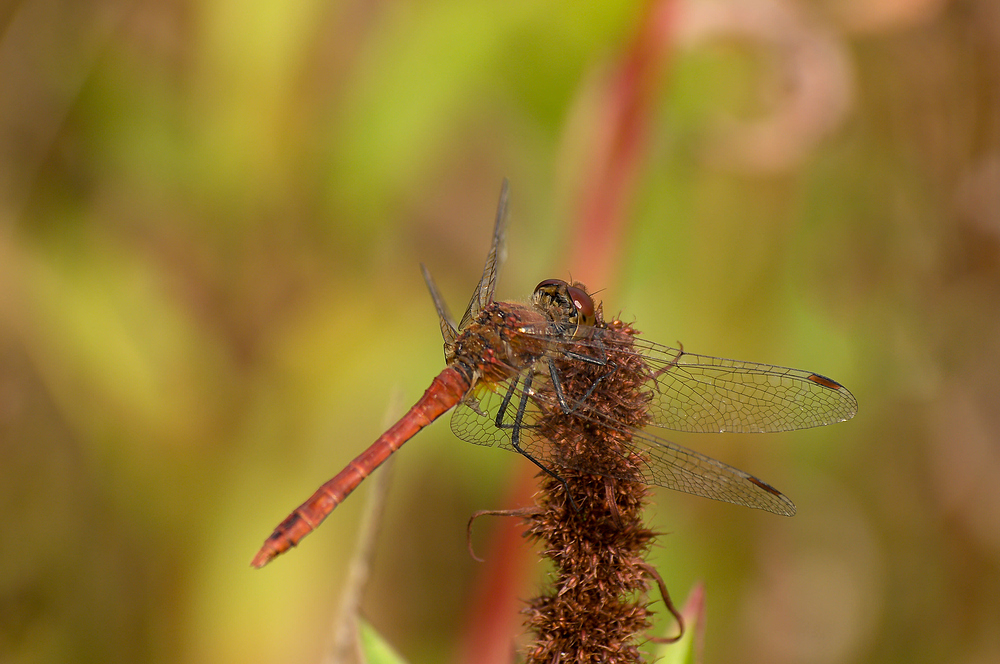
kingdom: Animalia
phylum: Arthropoda
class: Insecta
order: Odonata
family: Libellulidae
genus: Sympetrum
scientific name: Sympetrum sanguineum
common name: Ruddy darter
